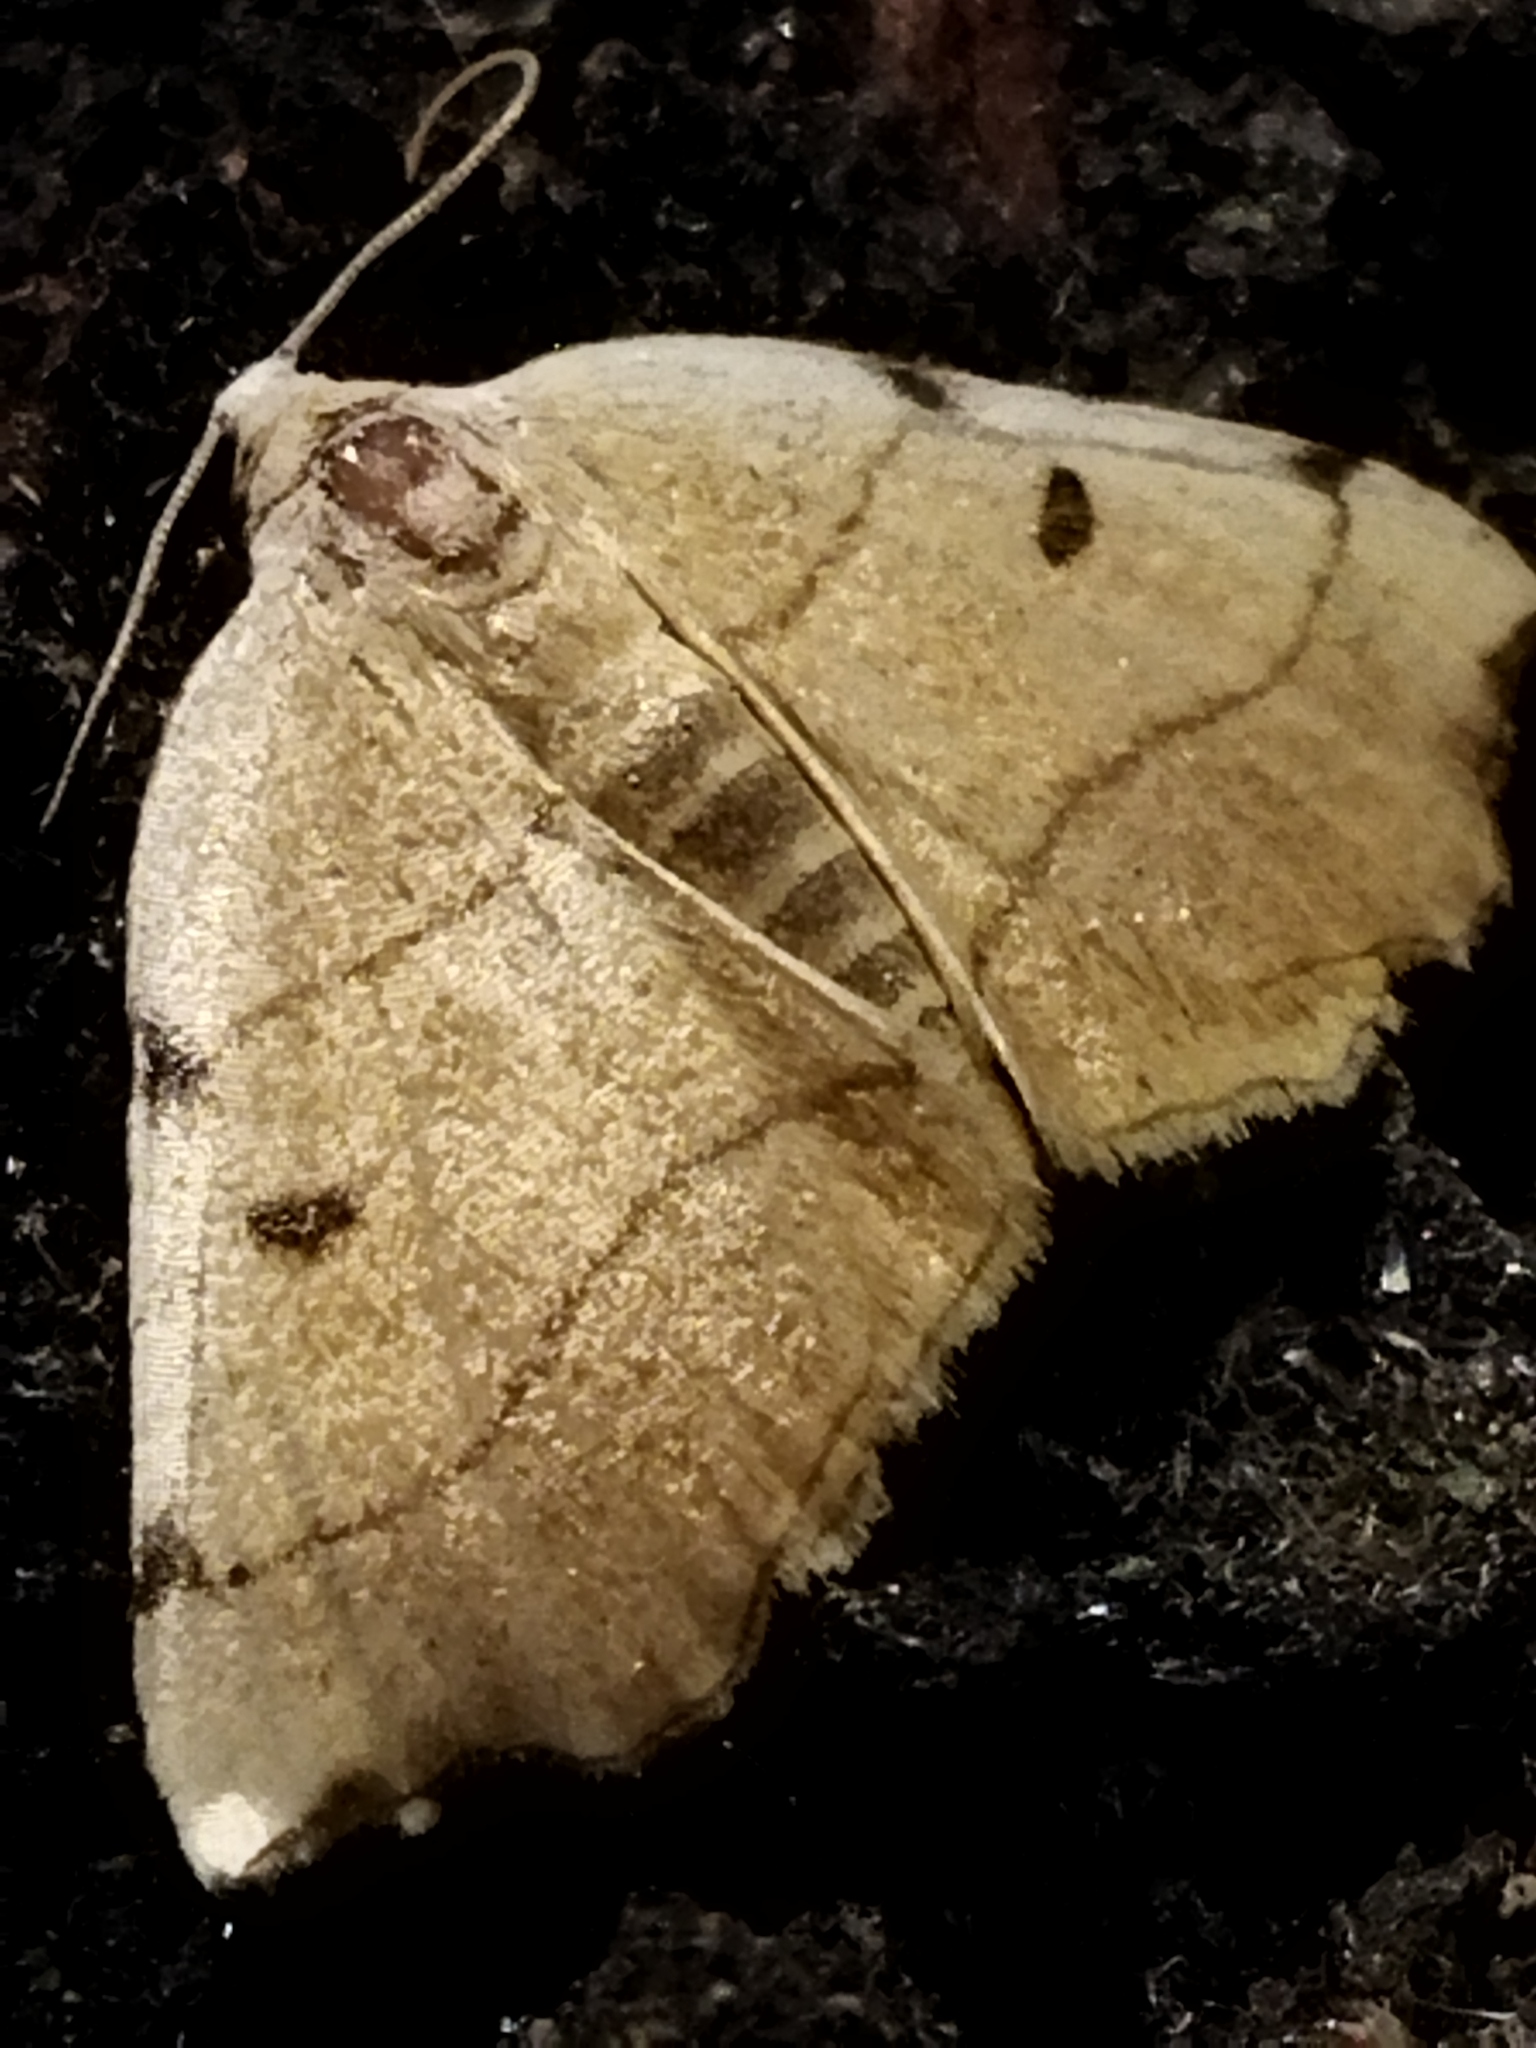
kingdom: Animalia
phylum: Arthropoda
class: Insecta
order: Lepidoptera
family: Geometridae
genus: Eilicrinia
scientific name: Eilicrinia trinotata
